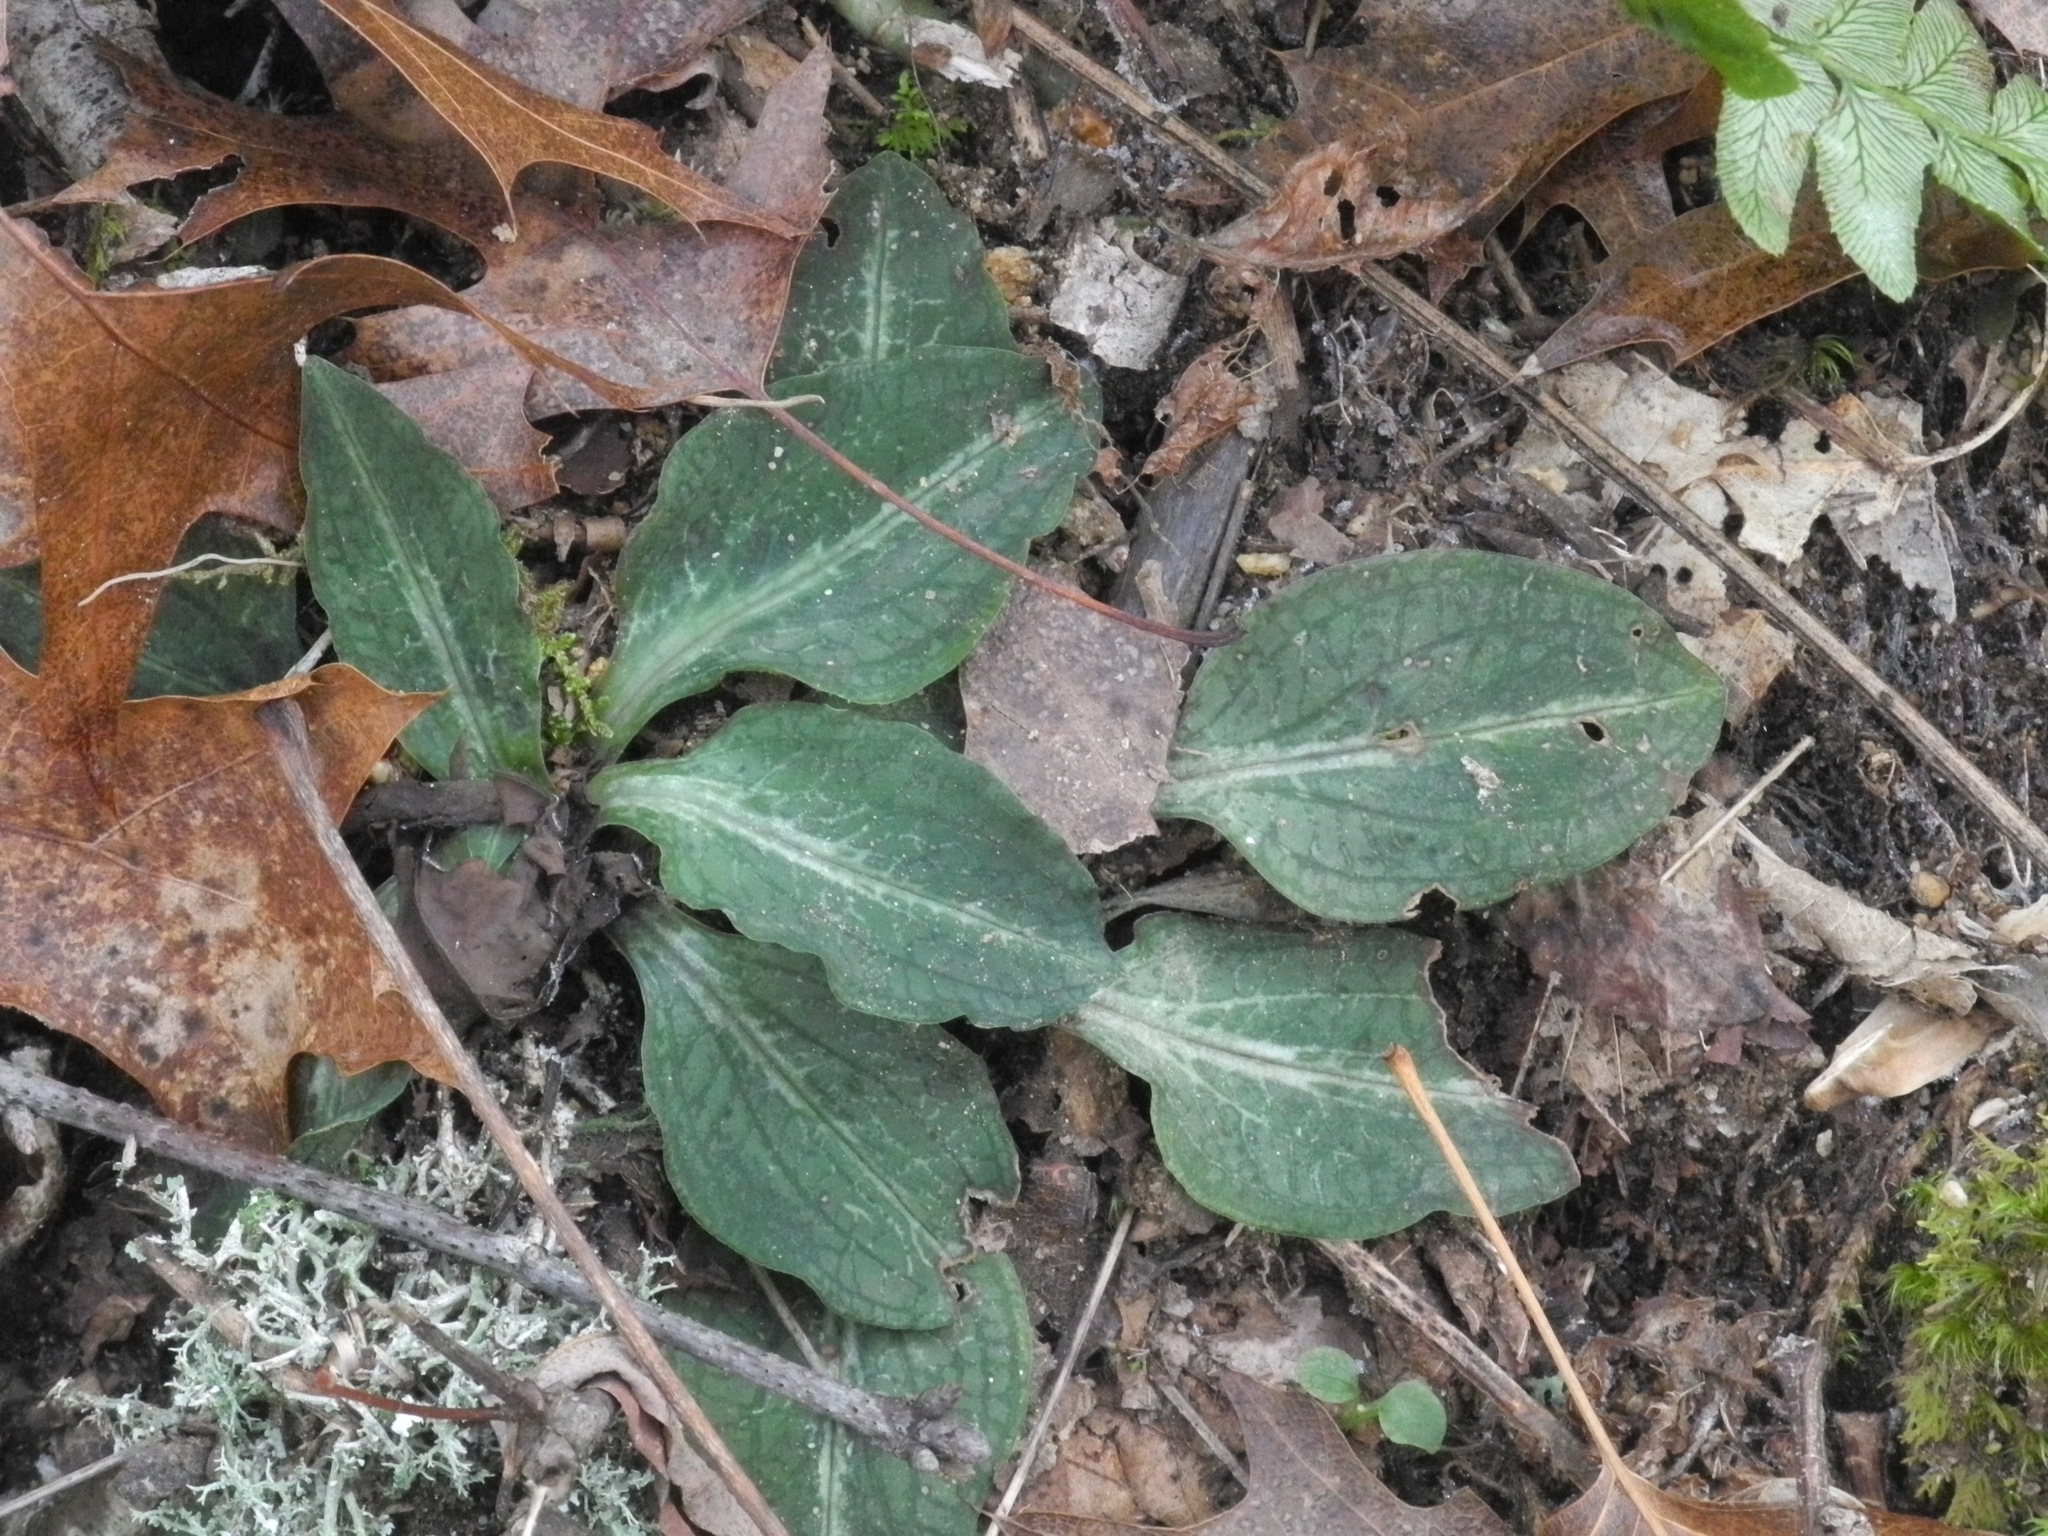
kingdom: Plantae
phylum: Tracheophyta
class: Liliopsida
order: Asparagales
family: Orchidaceae
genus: Goodyera
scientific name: Goodyera pubescens
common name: Downy rattlesnake-plantain
